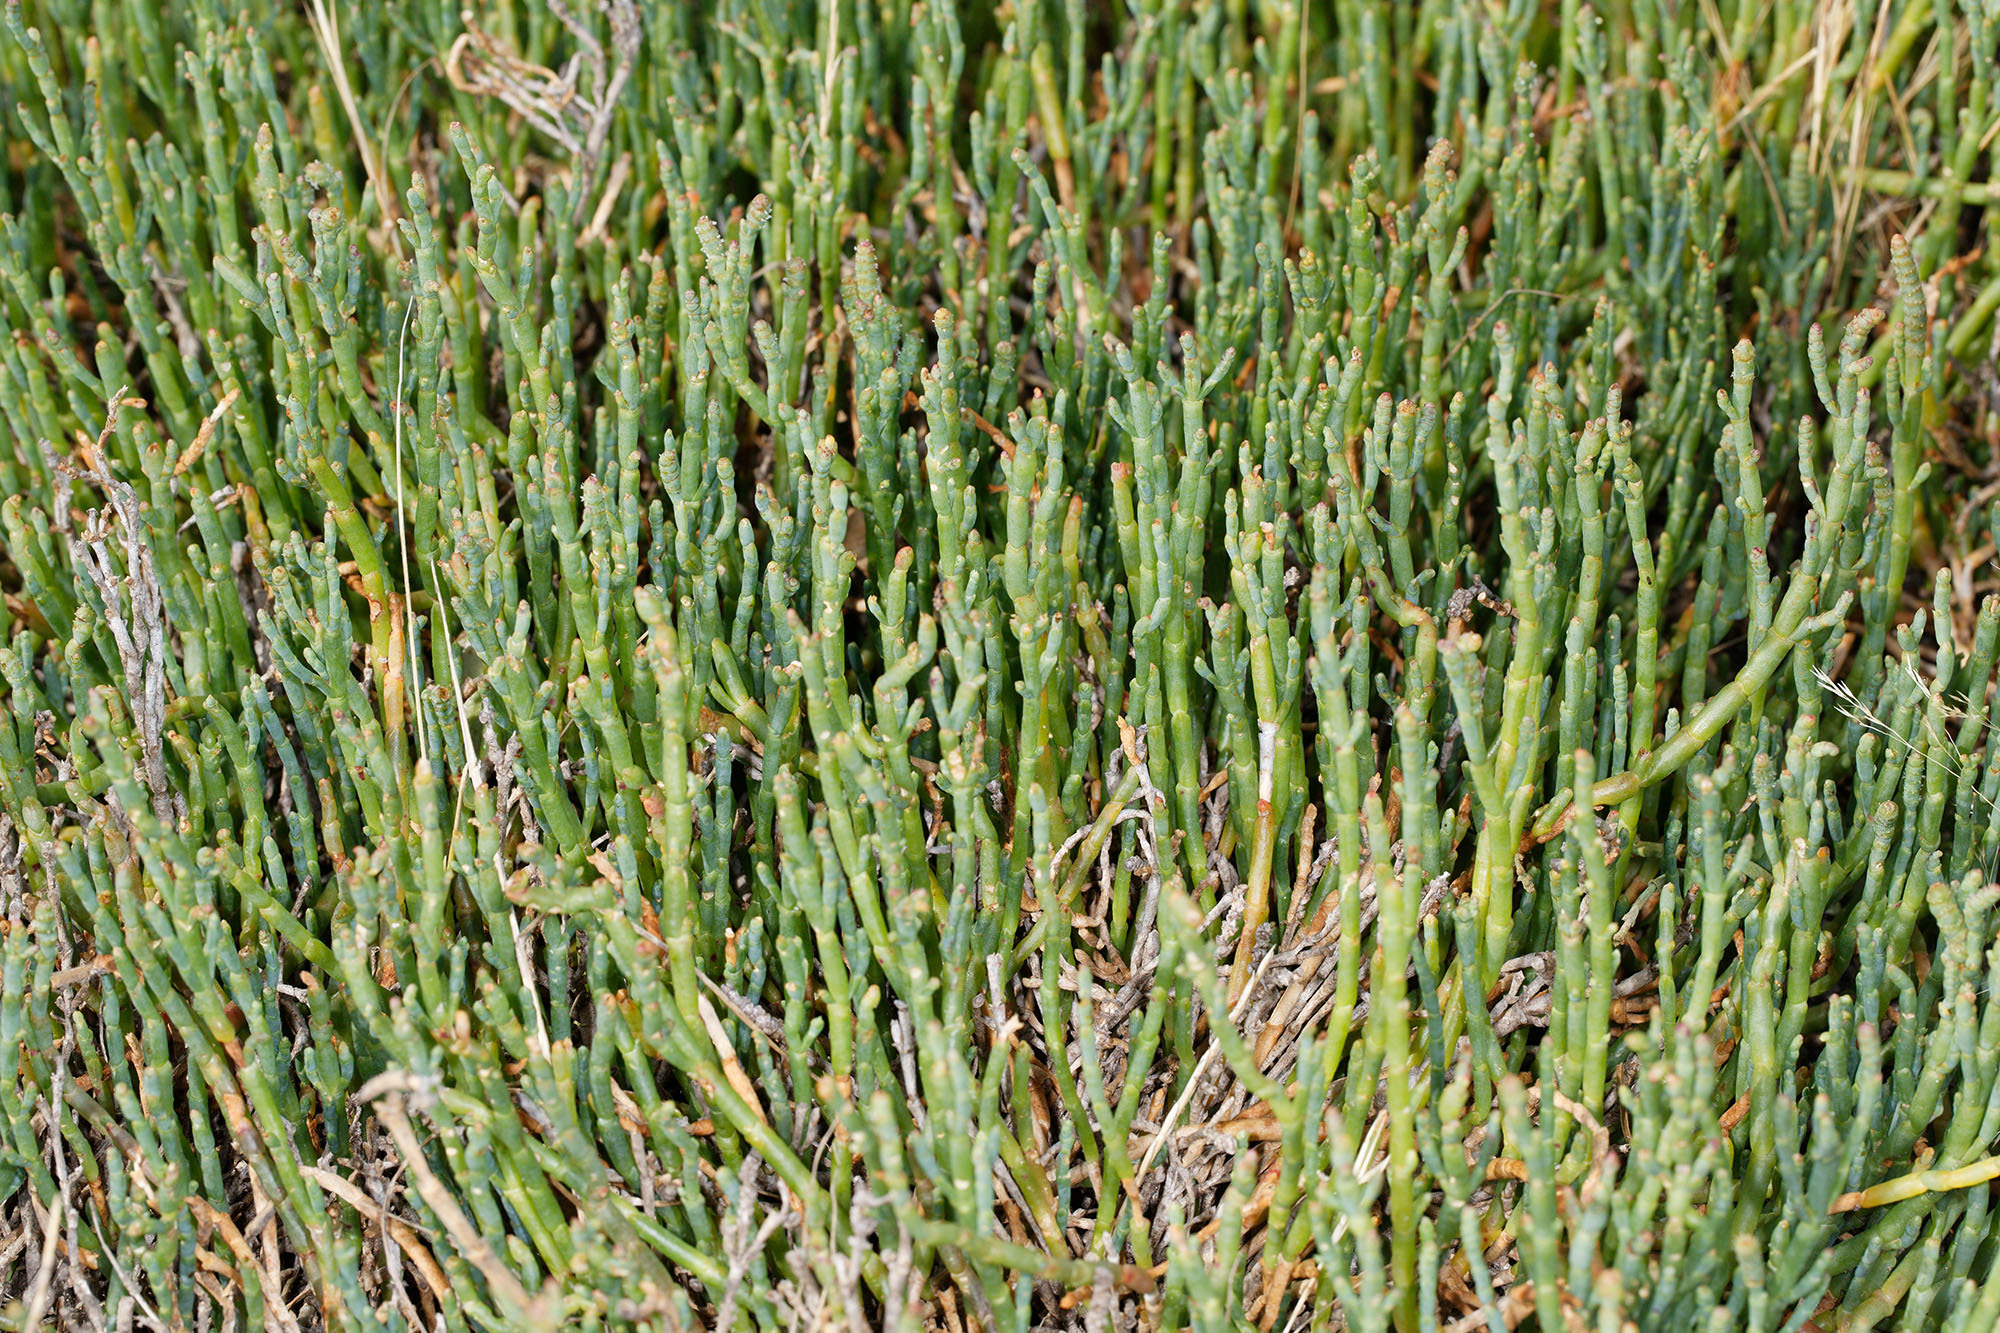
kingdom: Plantae
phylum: Tracheophyta
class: Magnoliopsida
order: Caryophyllales
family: Amaranthaceae
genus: Salicornia
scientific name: Salicornia quinqueflora
